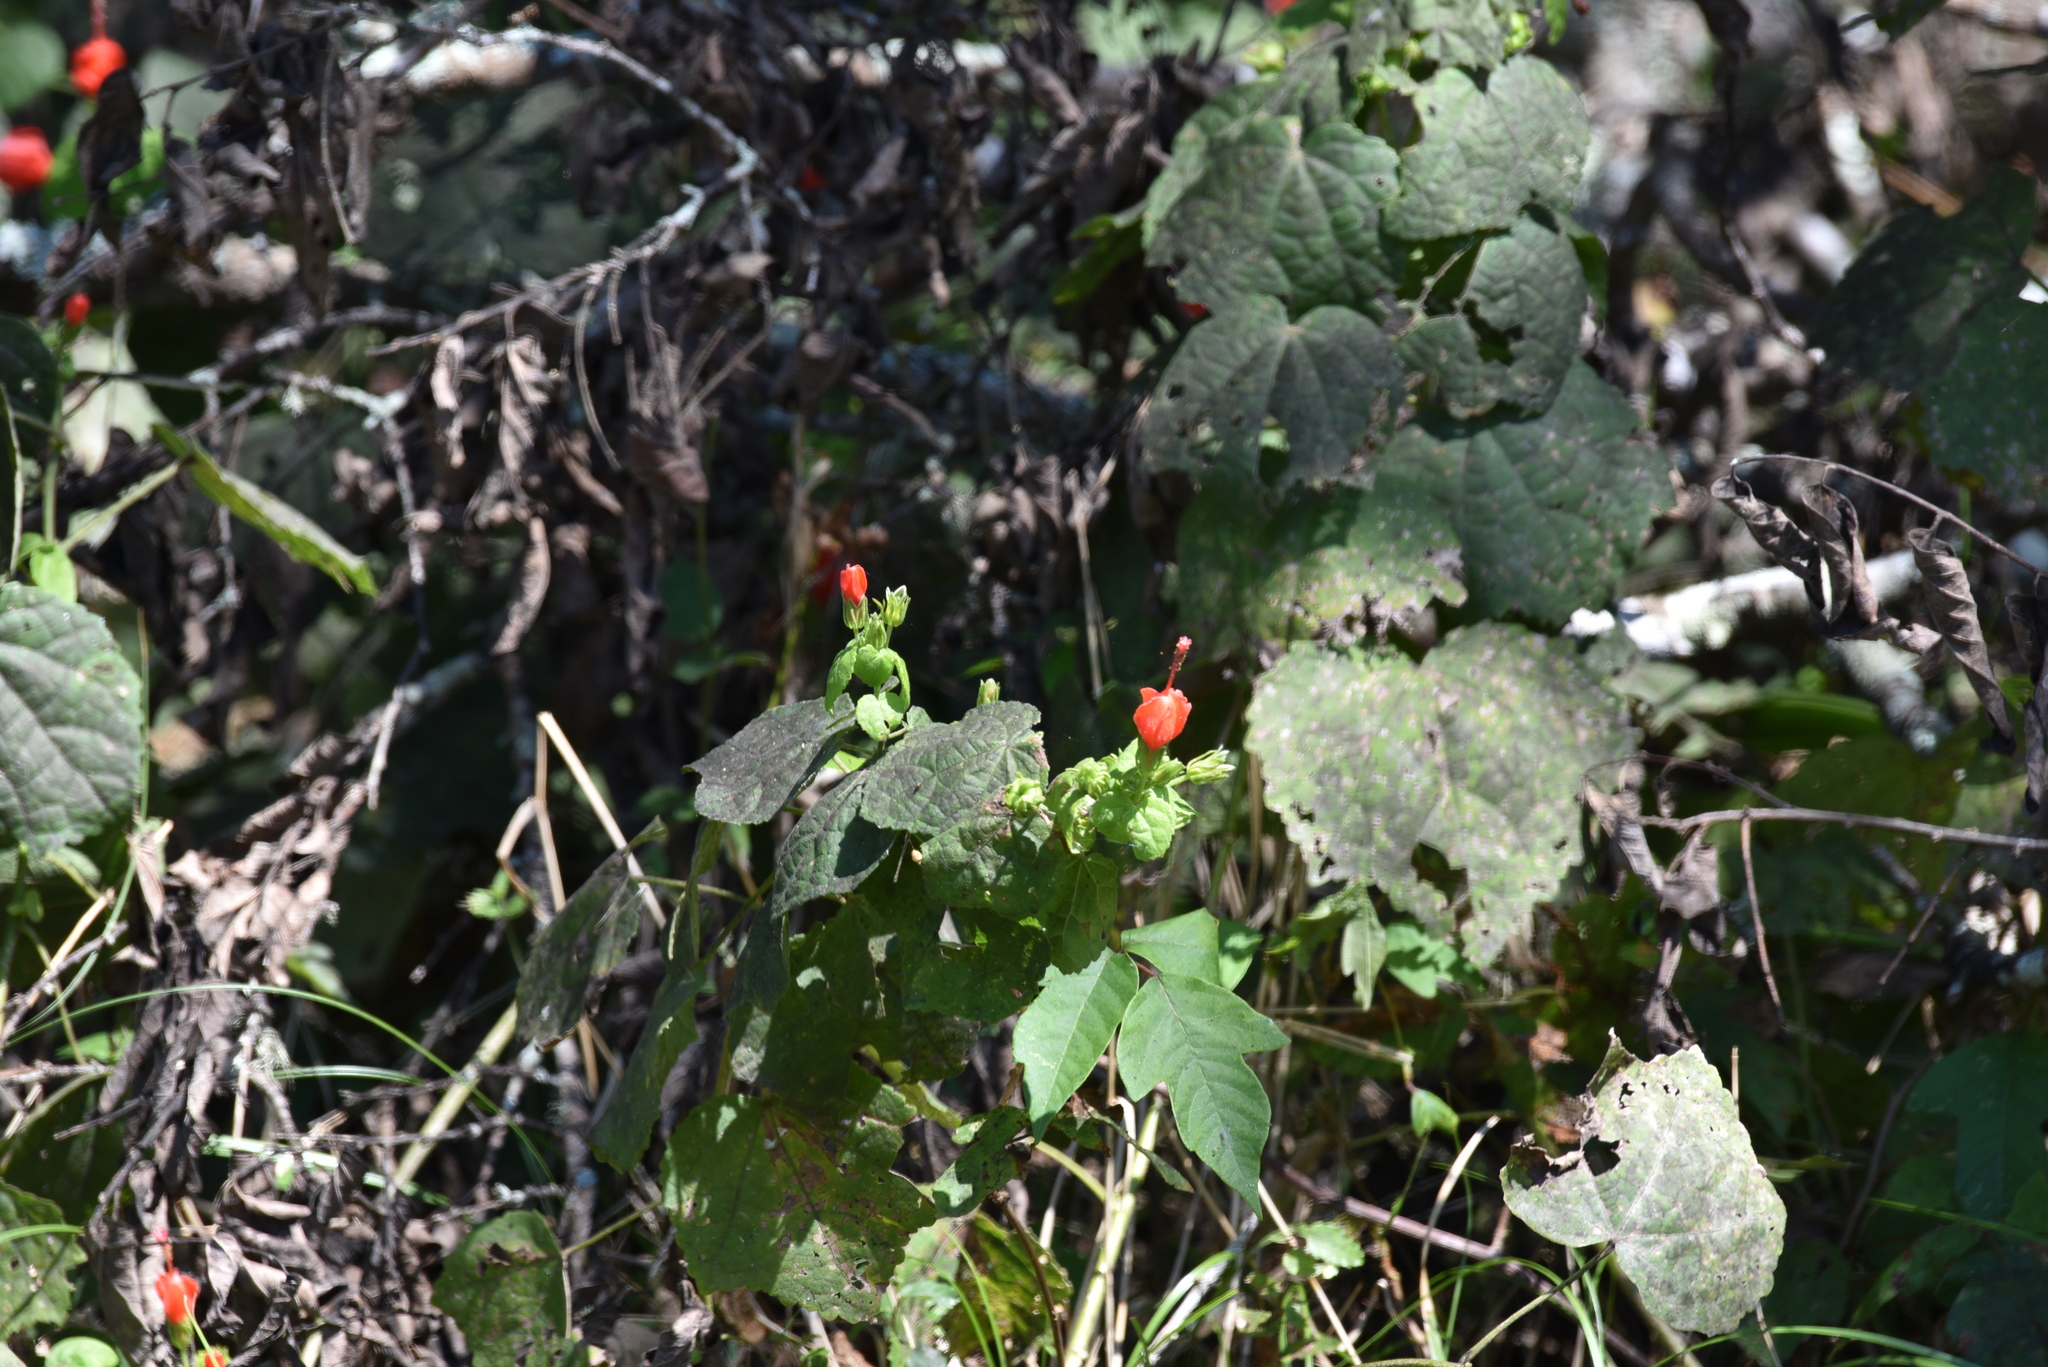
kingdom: Plantae
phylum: Tracheophyta
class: Magnoliopsida
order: Malvales
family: Malvaceae
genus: Malvaviscus
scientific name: Malvaviscus arboreus
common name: Wax mallow
